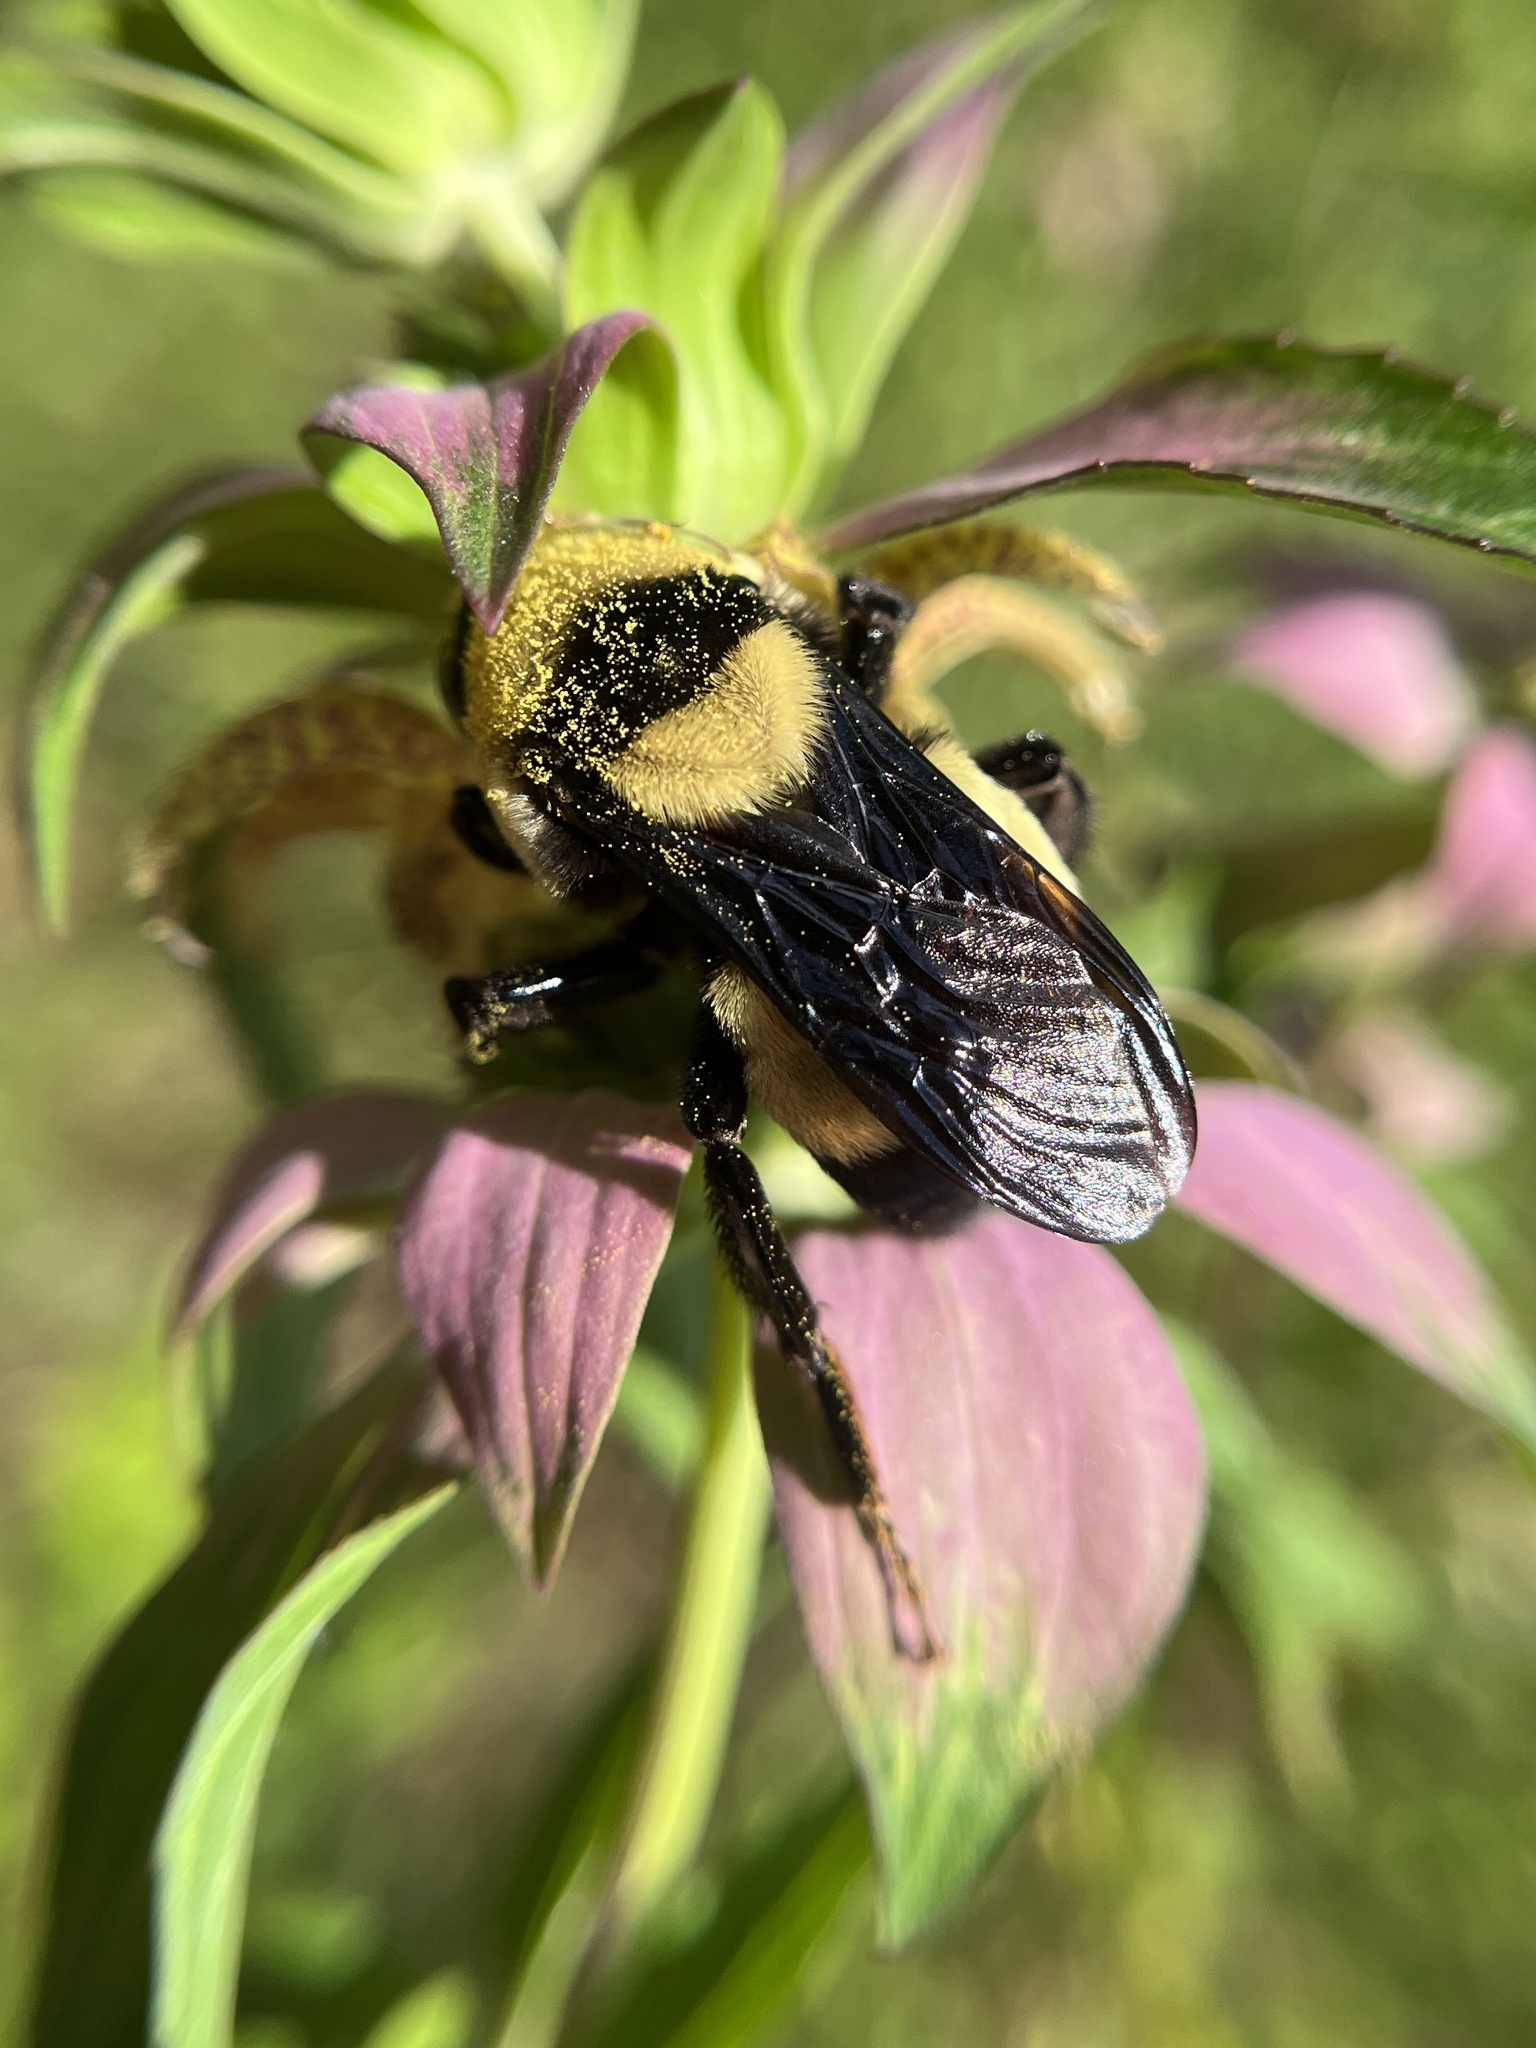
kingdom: Animalia
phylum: Arthropoda
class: Insecta
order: Hymenoptera
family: Apidae
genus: Bombus
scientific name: Bombus fraternus
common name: Southern plains bumble bee
